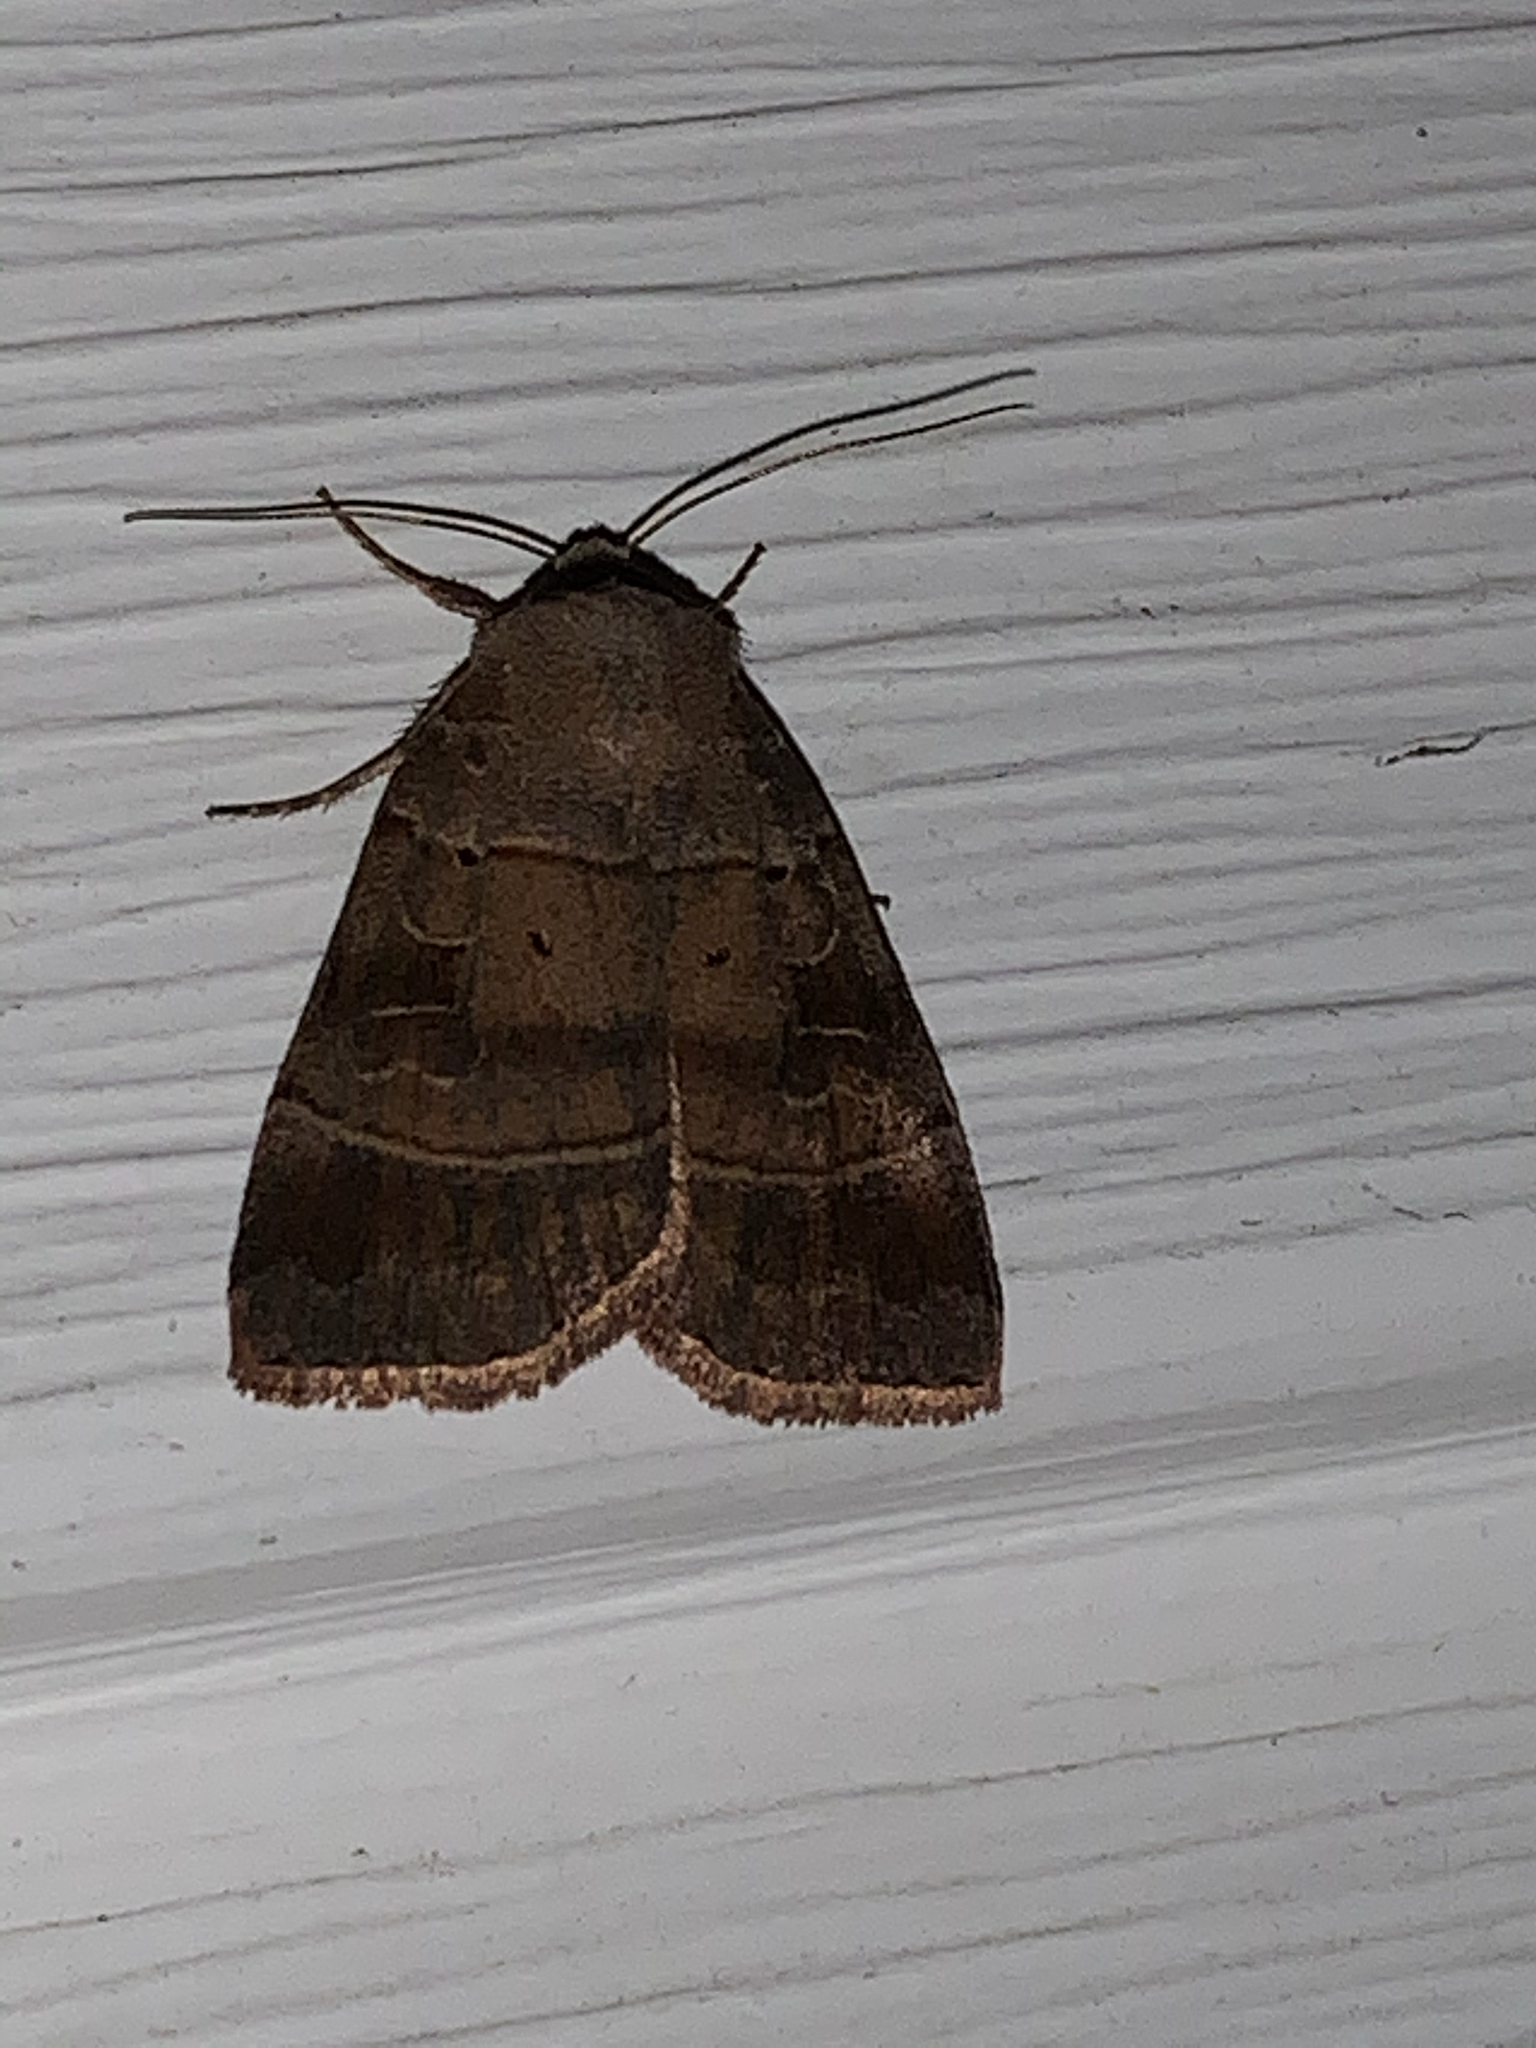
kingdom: Animalia
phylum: Arthropoda
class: Insecta
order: Lepidoptera
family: Noctuidae
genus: Agnorisma
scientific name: Agnorisma badinodis
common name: Pale-banded dart
